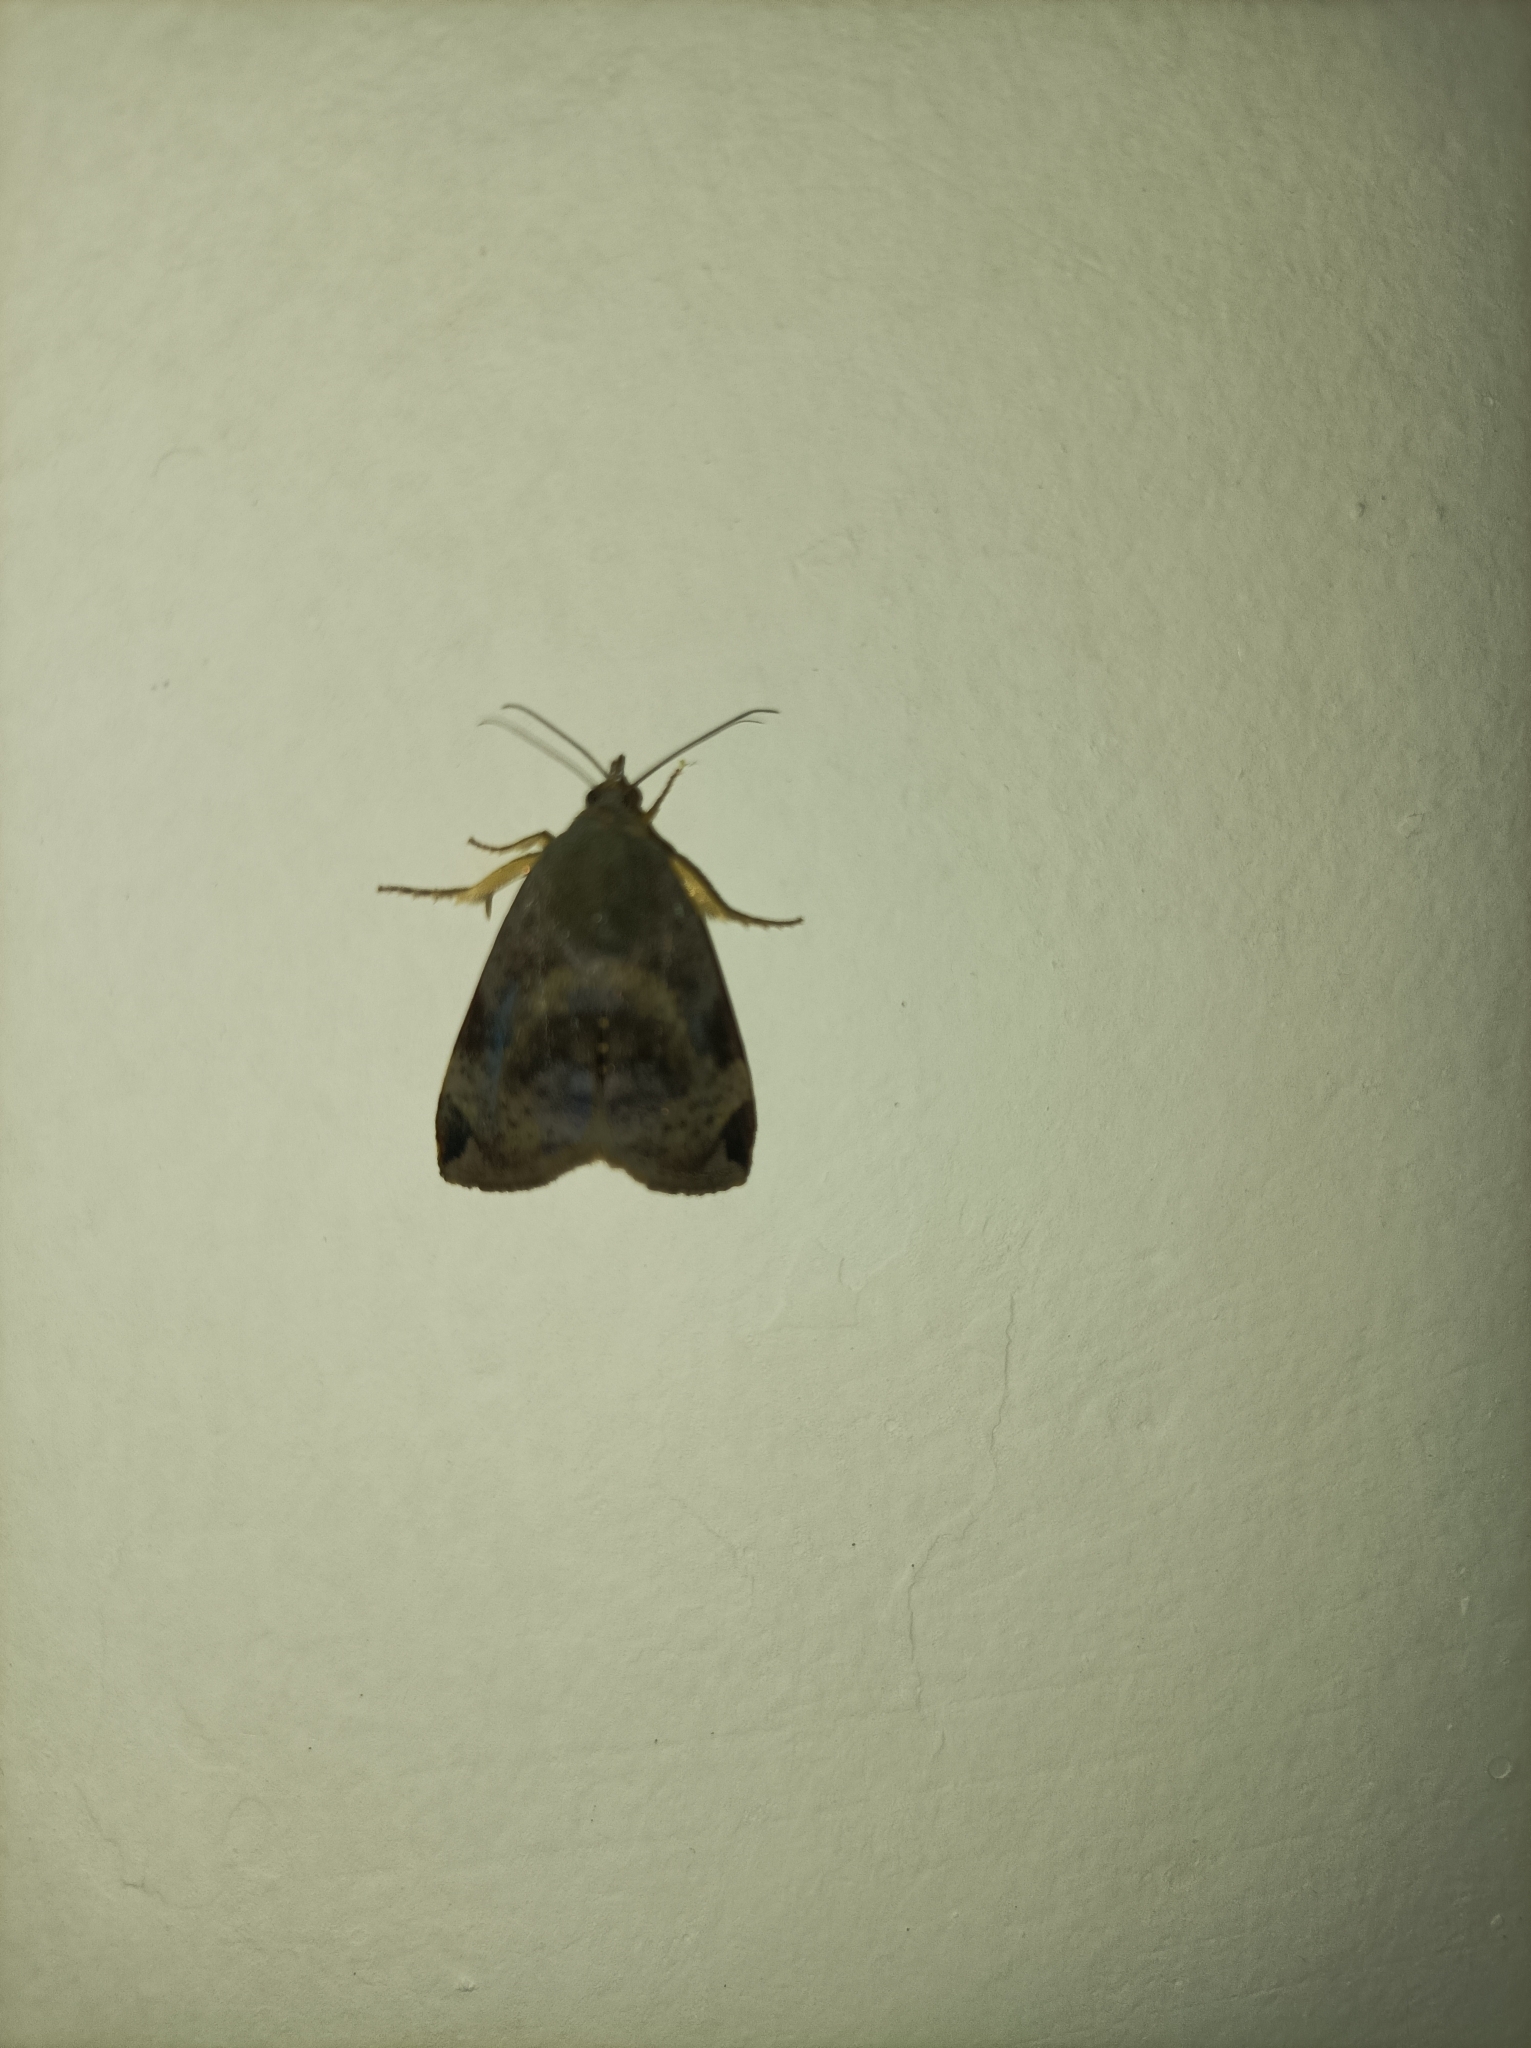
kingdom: Animalia
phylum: Arthropoda
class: Insecta
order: Lepidoptera
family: Hyblaeidae
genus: Hyblaea
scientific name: Hyblaea puera
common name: Teak defoliator moth
